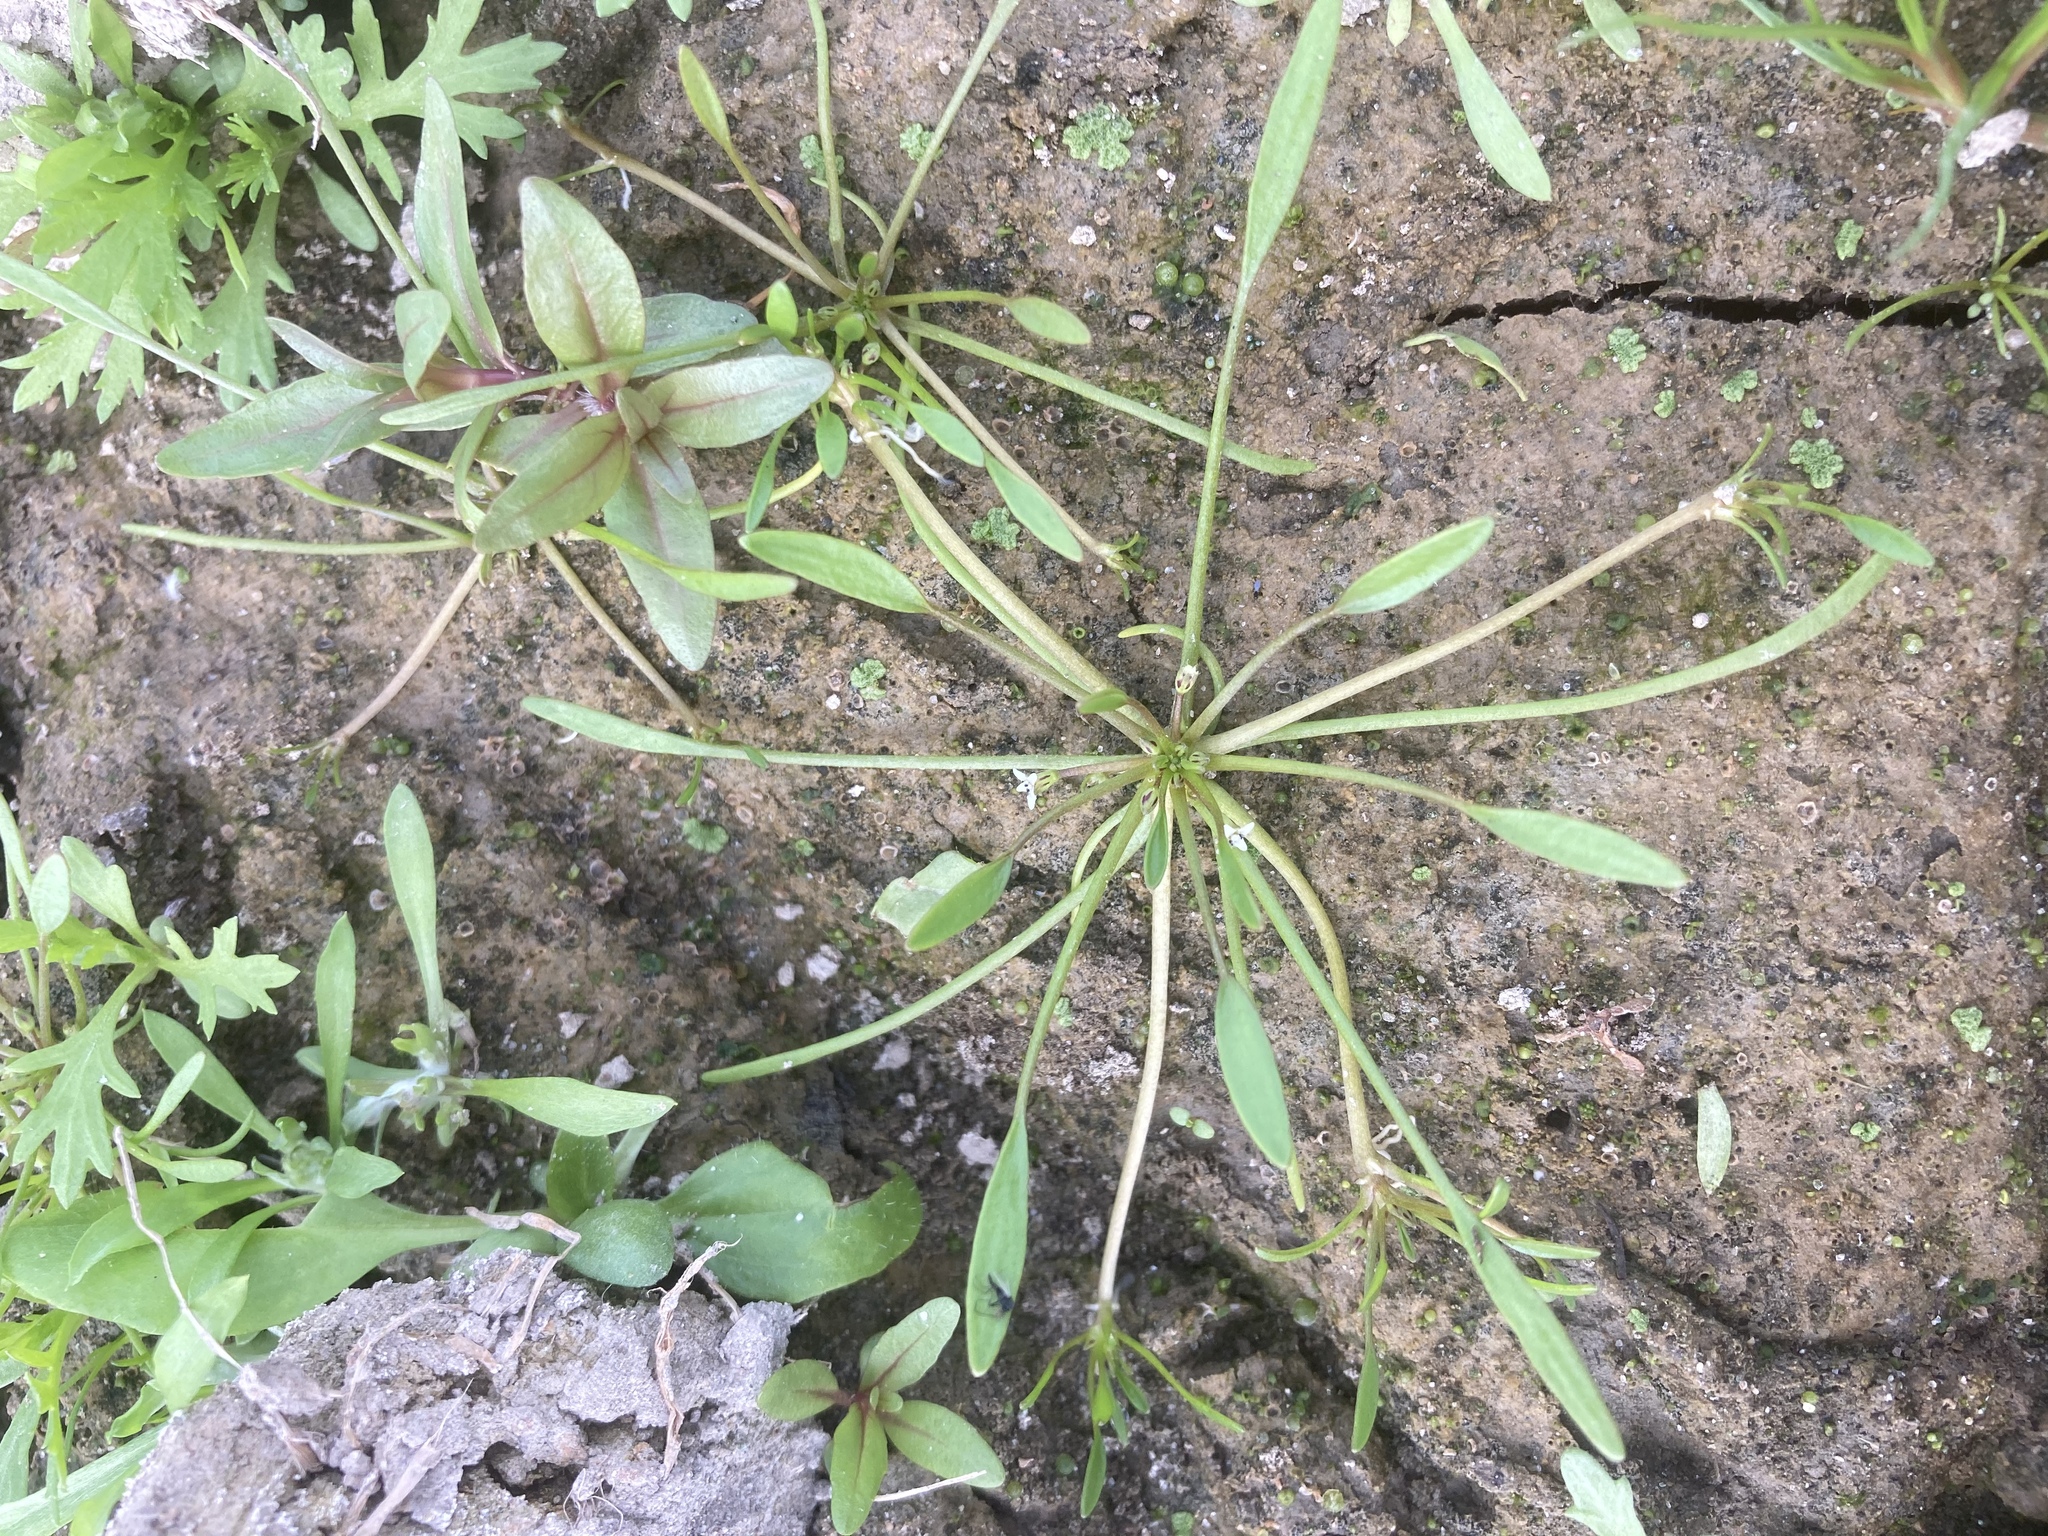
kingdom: Plantae
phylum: Tracheophyta
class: Magnoliopsida
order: Lamiales
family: Scrophulariaceae
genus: Limosella
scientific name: Limosella aquatica
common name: Mudwort
